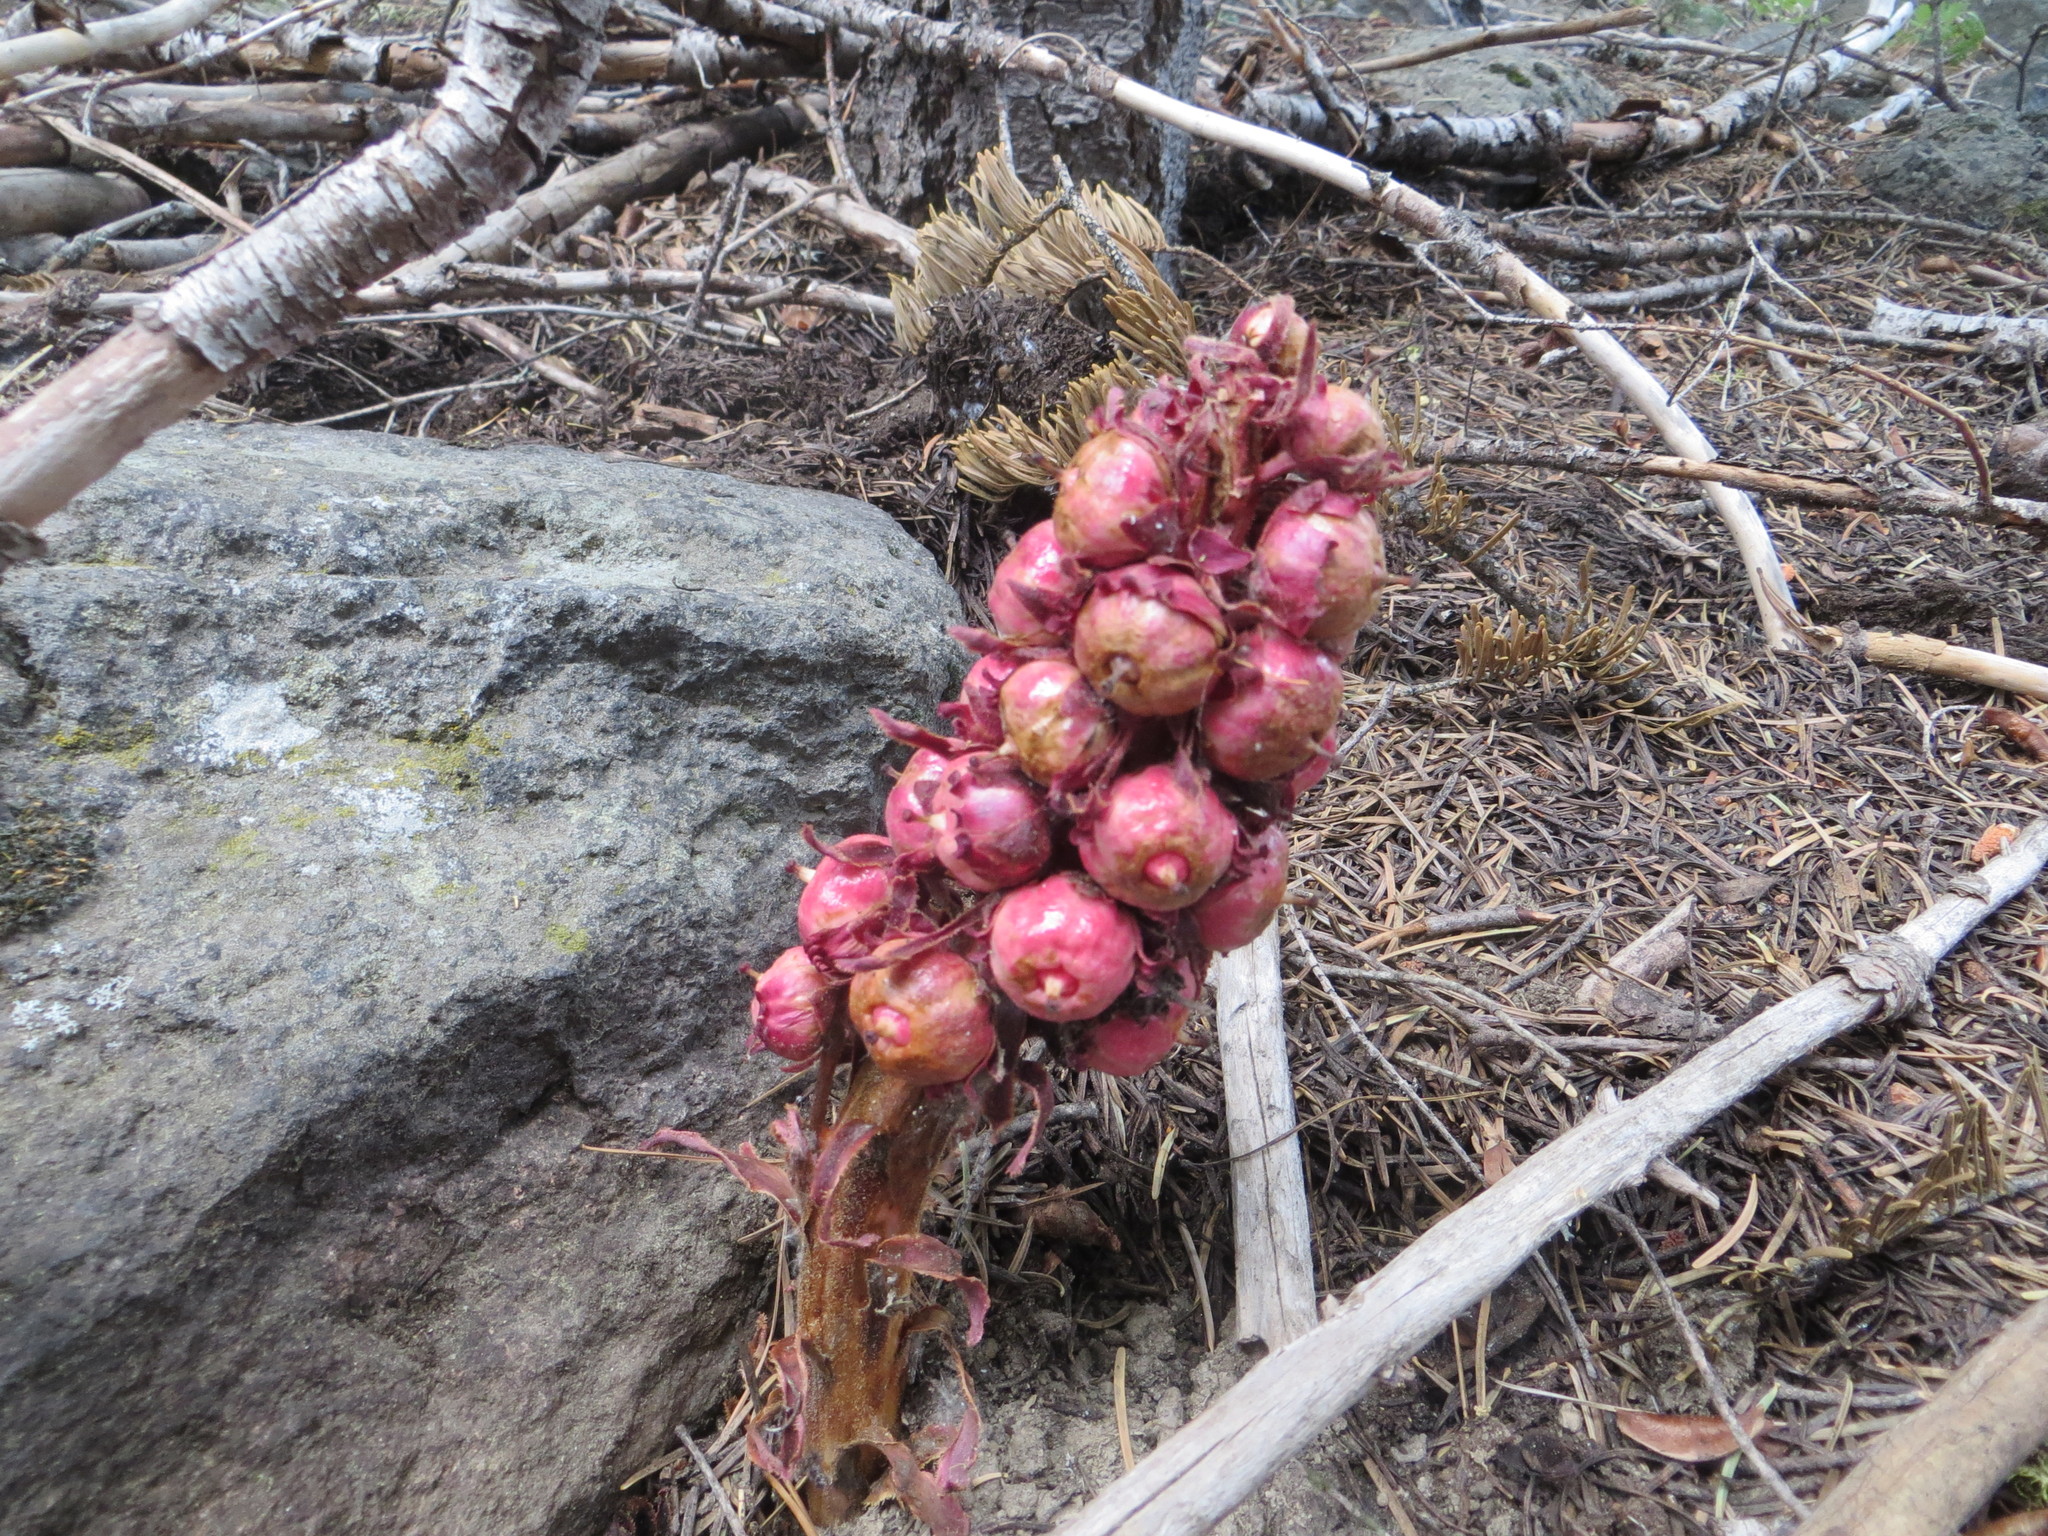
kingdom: Plantae
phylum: Tracheophyta
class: Magnoliopsida
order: Ericales
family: Ericaceae
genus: Sarcodes
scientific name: Sarcodes sanguinea
